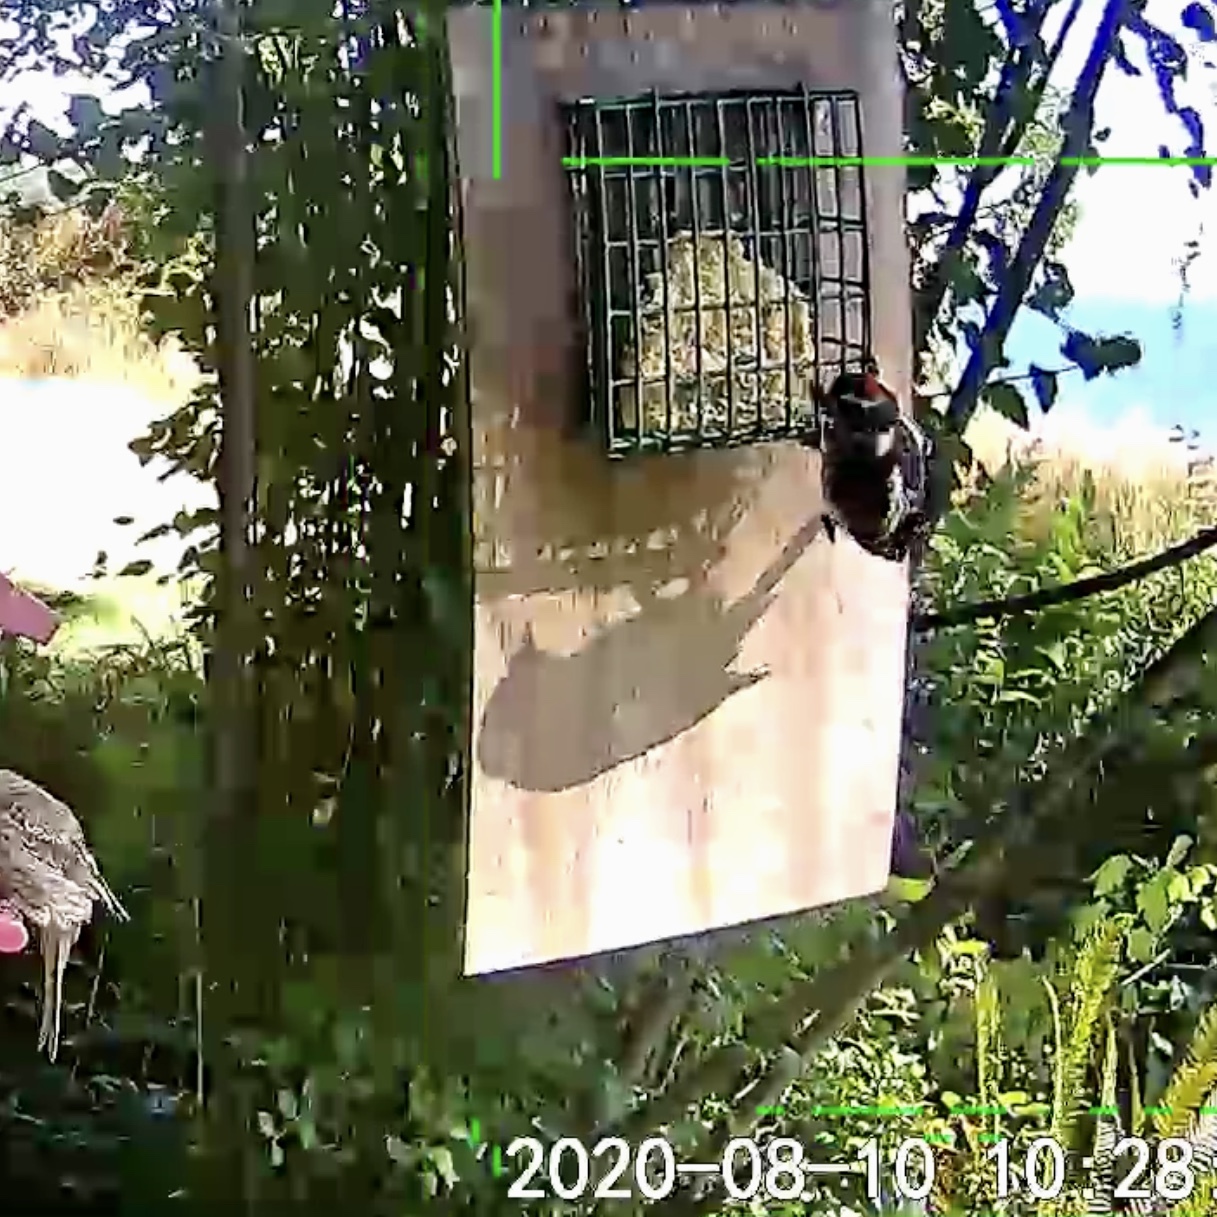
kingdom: Animalia
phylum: Chordata
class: Aves
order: Piciformes
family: Picidae
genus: Dryobates
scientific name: Dryobates pubescens
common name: Downy woodpecker
